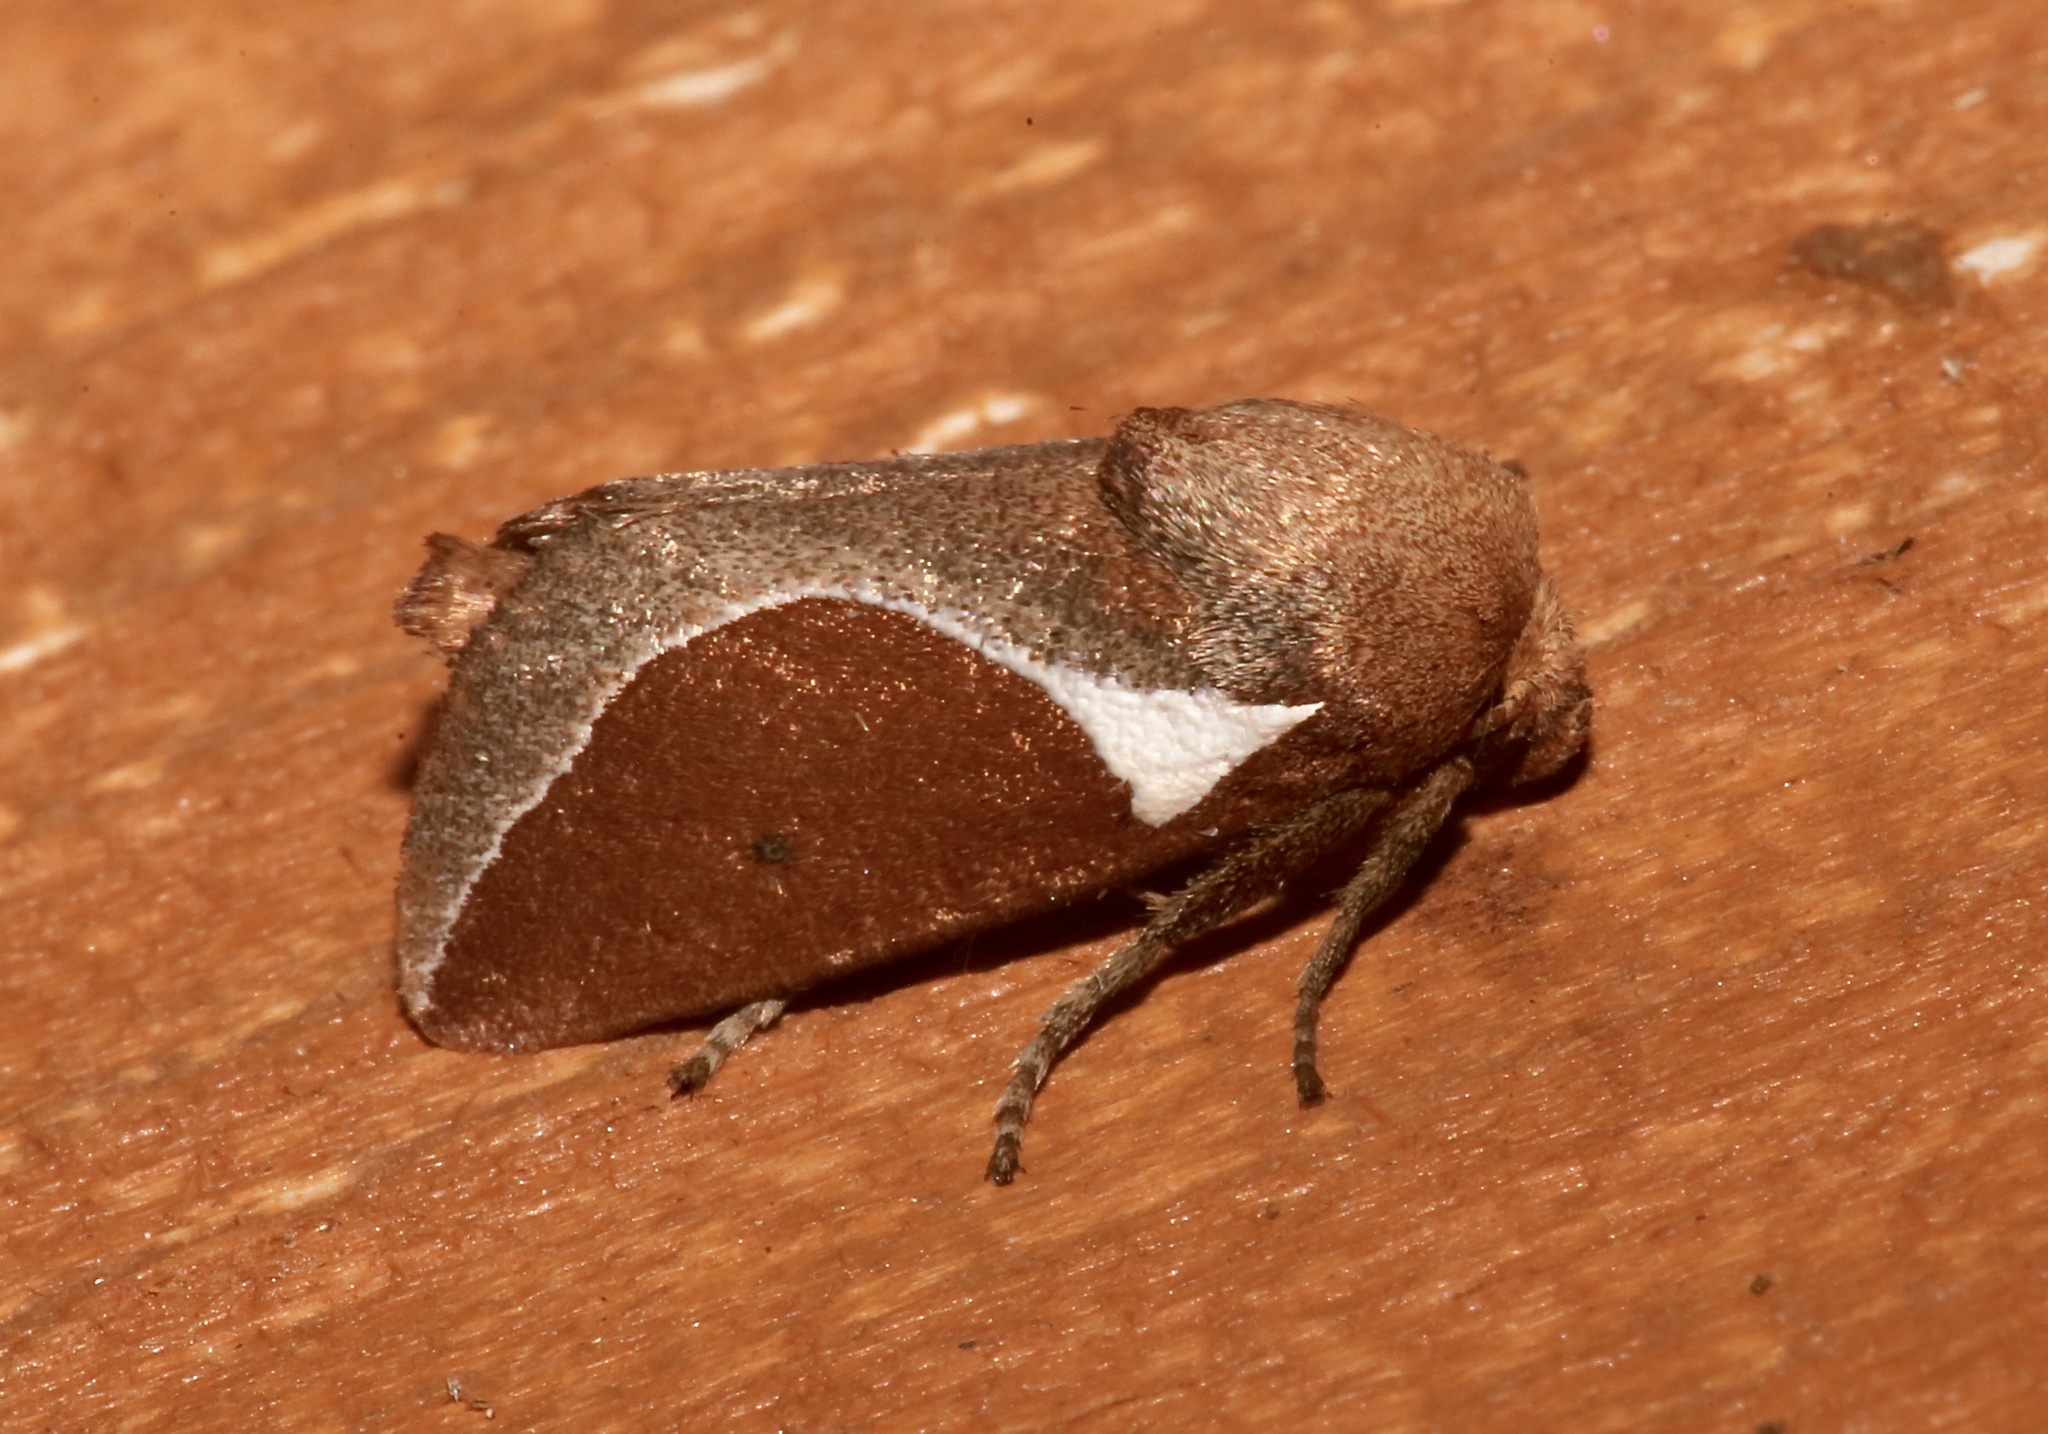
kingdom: Animalia
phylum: Arthropoda
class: Insecta
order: Lepidoptera
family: Limacodidae
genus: Prolimacodes
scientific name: Prolimacodes badia
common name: Skiff moth
